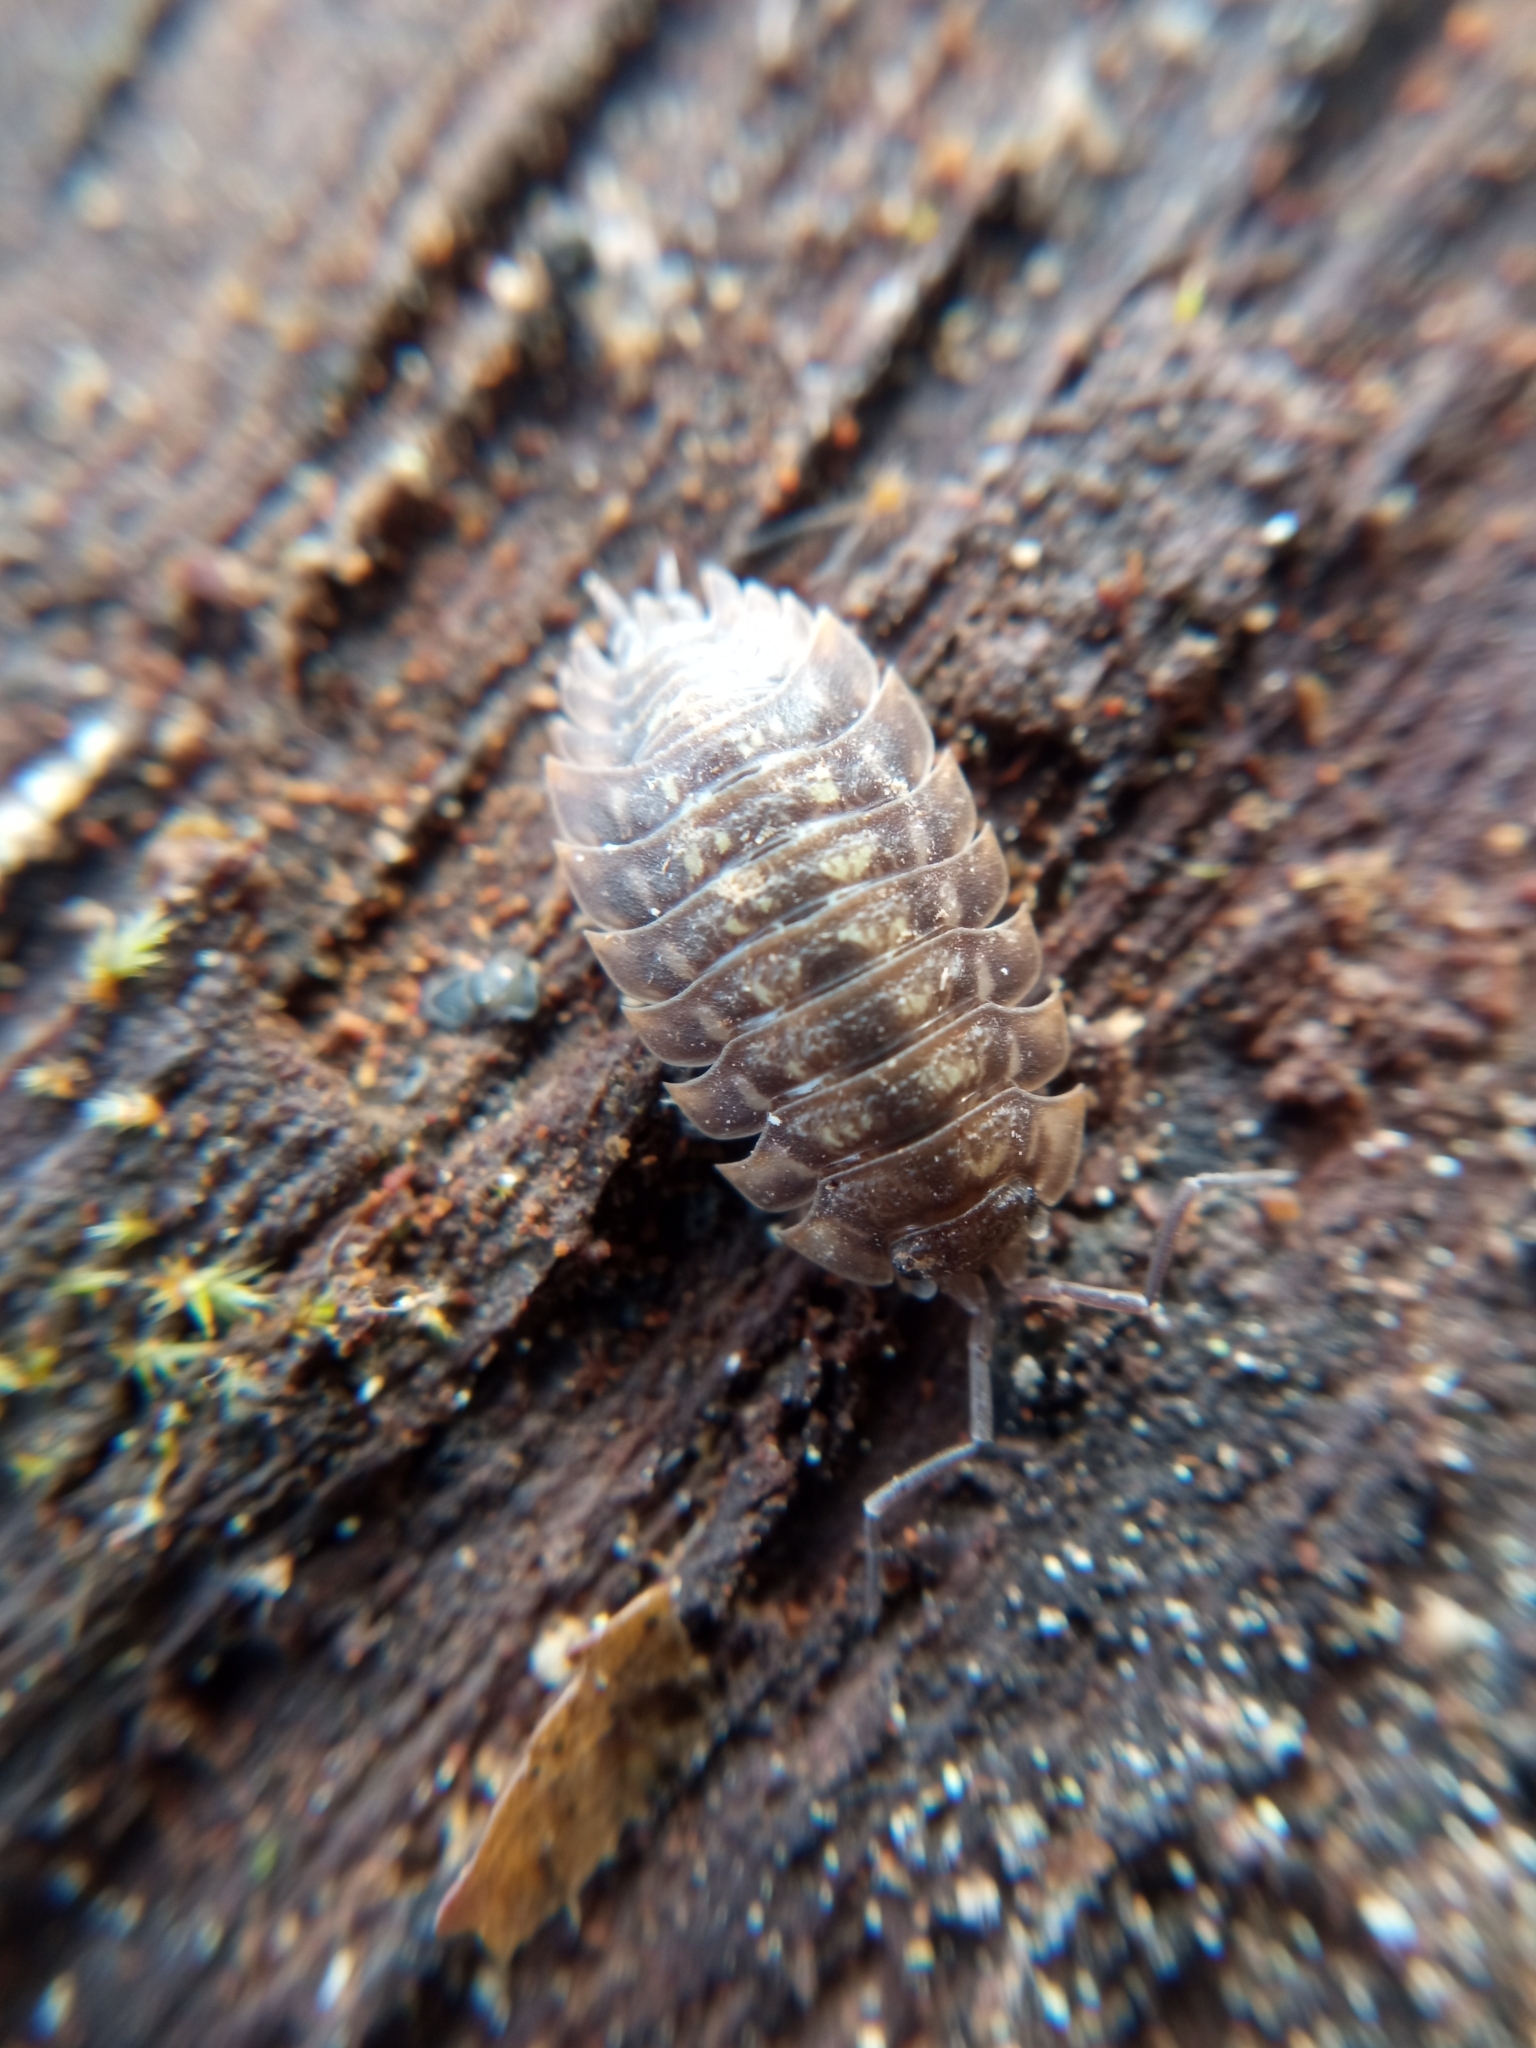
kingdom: Animalia
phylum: Arthropoda
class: Malacostraca
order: Isopoda
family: Oniscidae
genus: Oniscus
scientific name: Oniscus asellus
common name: Common shiny woodlouse
